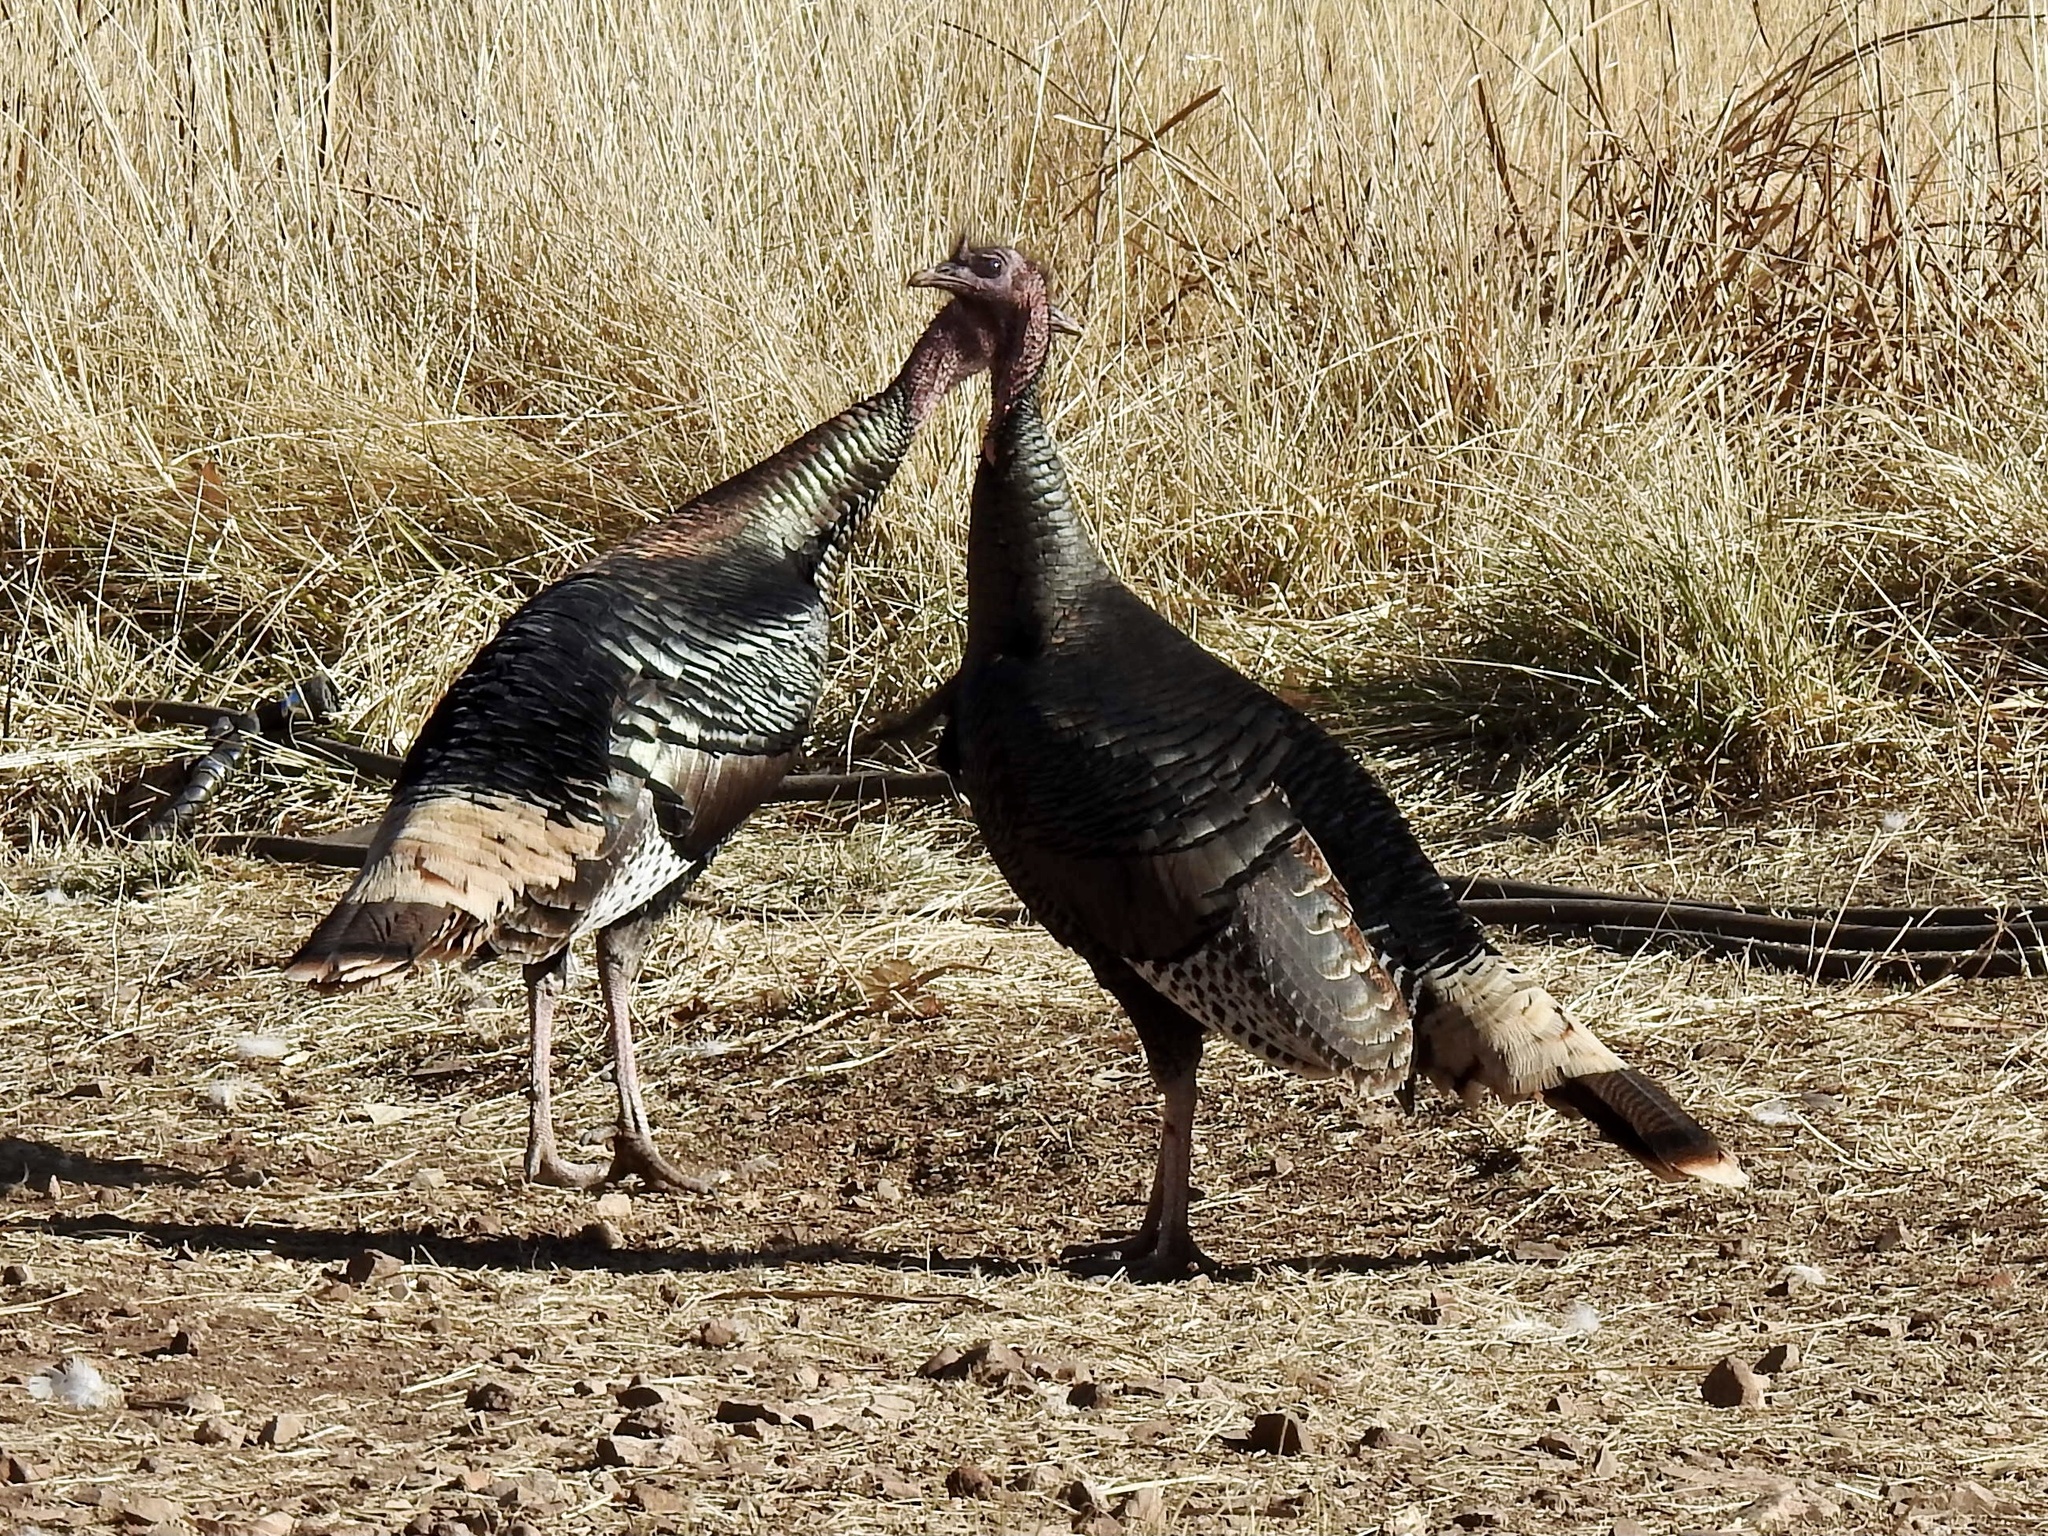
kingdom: Animalia
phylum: Chordata
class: Aves
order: Galliformes
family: Phasianidae
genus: Meleagris
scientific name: Meleagris gallopavo
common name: Wild turkey
